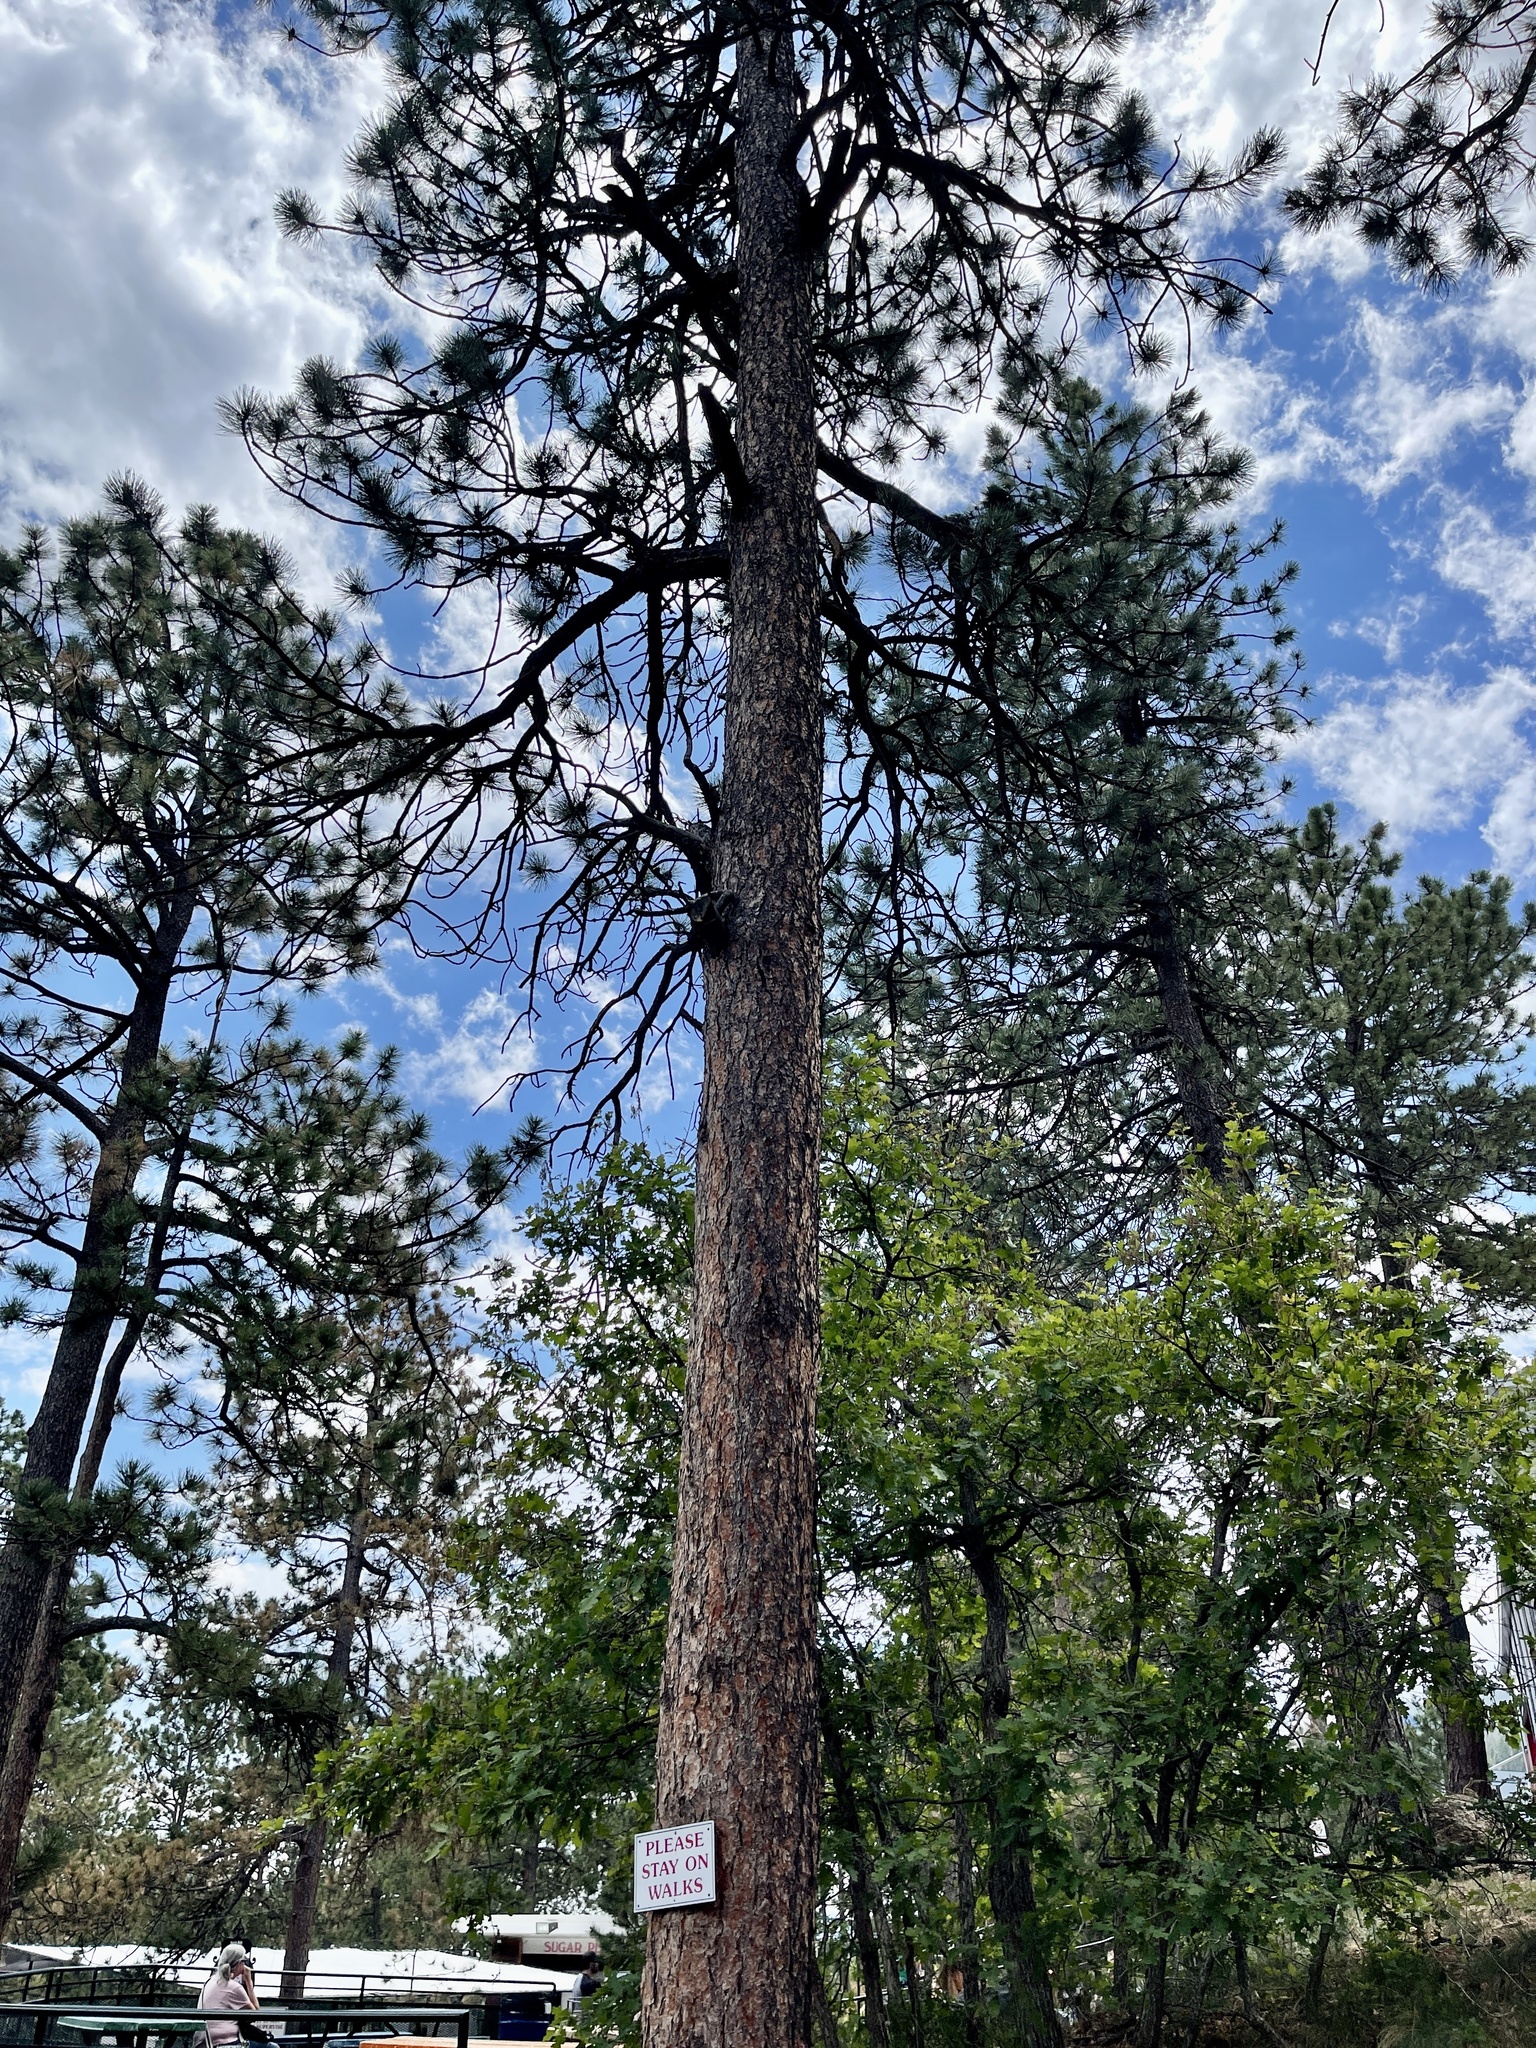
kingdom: Plantae
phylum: Tracheophyta
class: Pinopsida
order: Pinales
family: Pinaceae
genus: Pinus
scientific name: Pinus ponderosa
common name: Western yellow-pine
